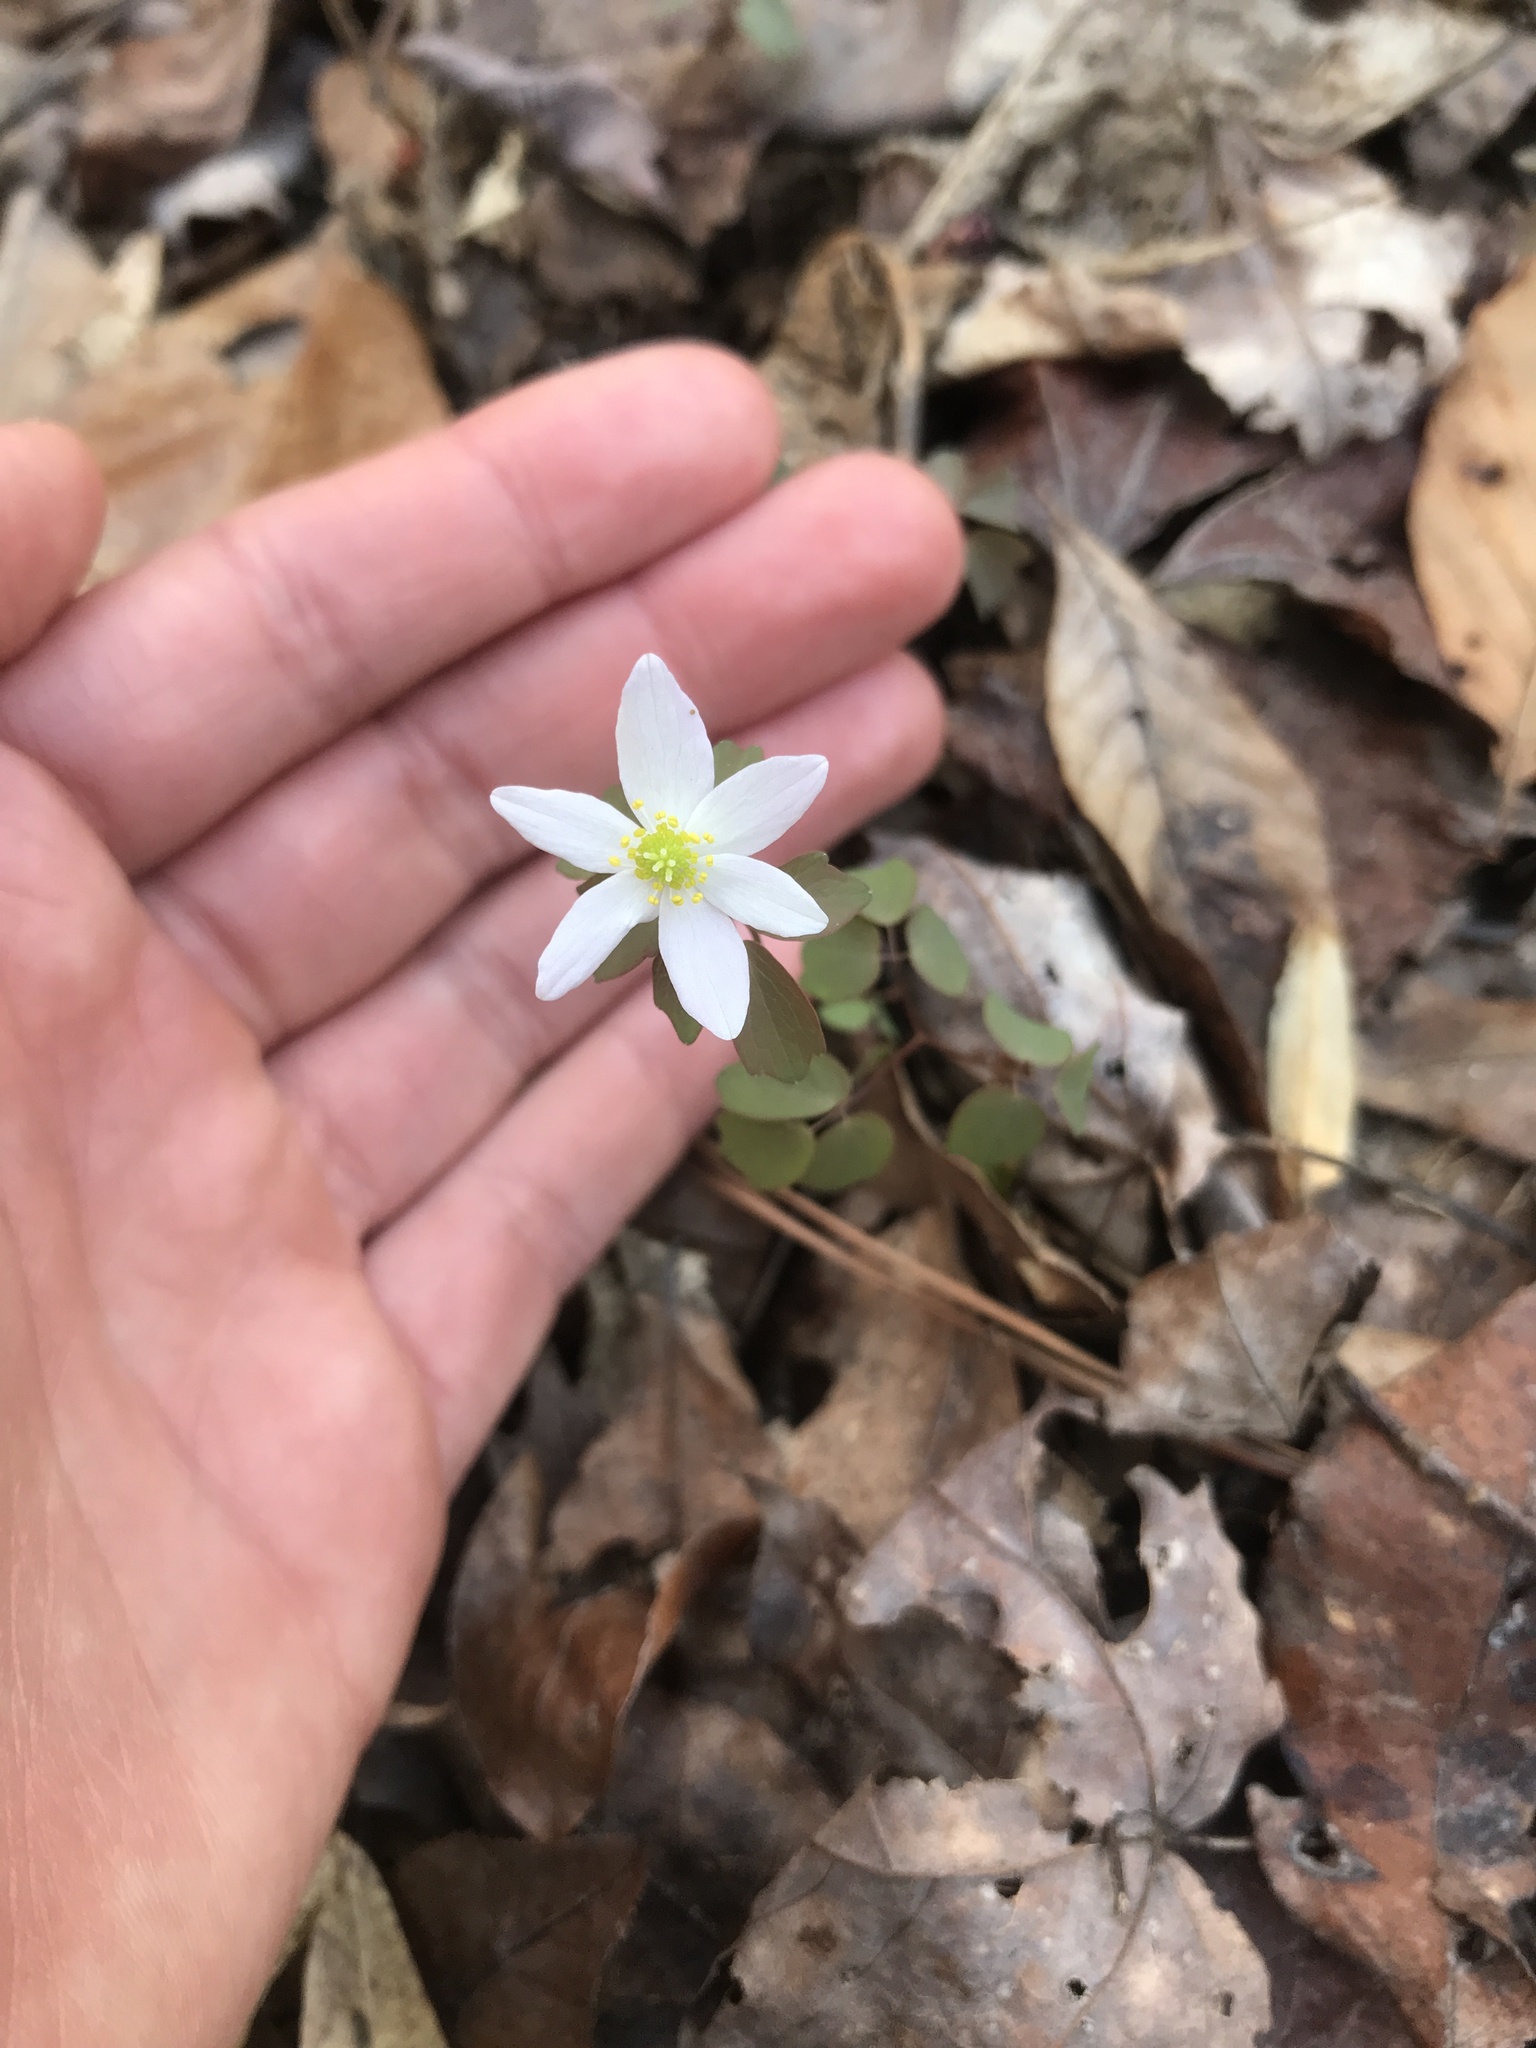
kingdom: Plantae
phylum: Tracheophyta
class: Magnoliopsida
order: Ranunculales
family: Ranunculaceae
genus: Thalictrum
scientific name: Thalictrum thalictroides
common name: Rue-anemone
